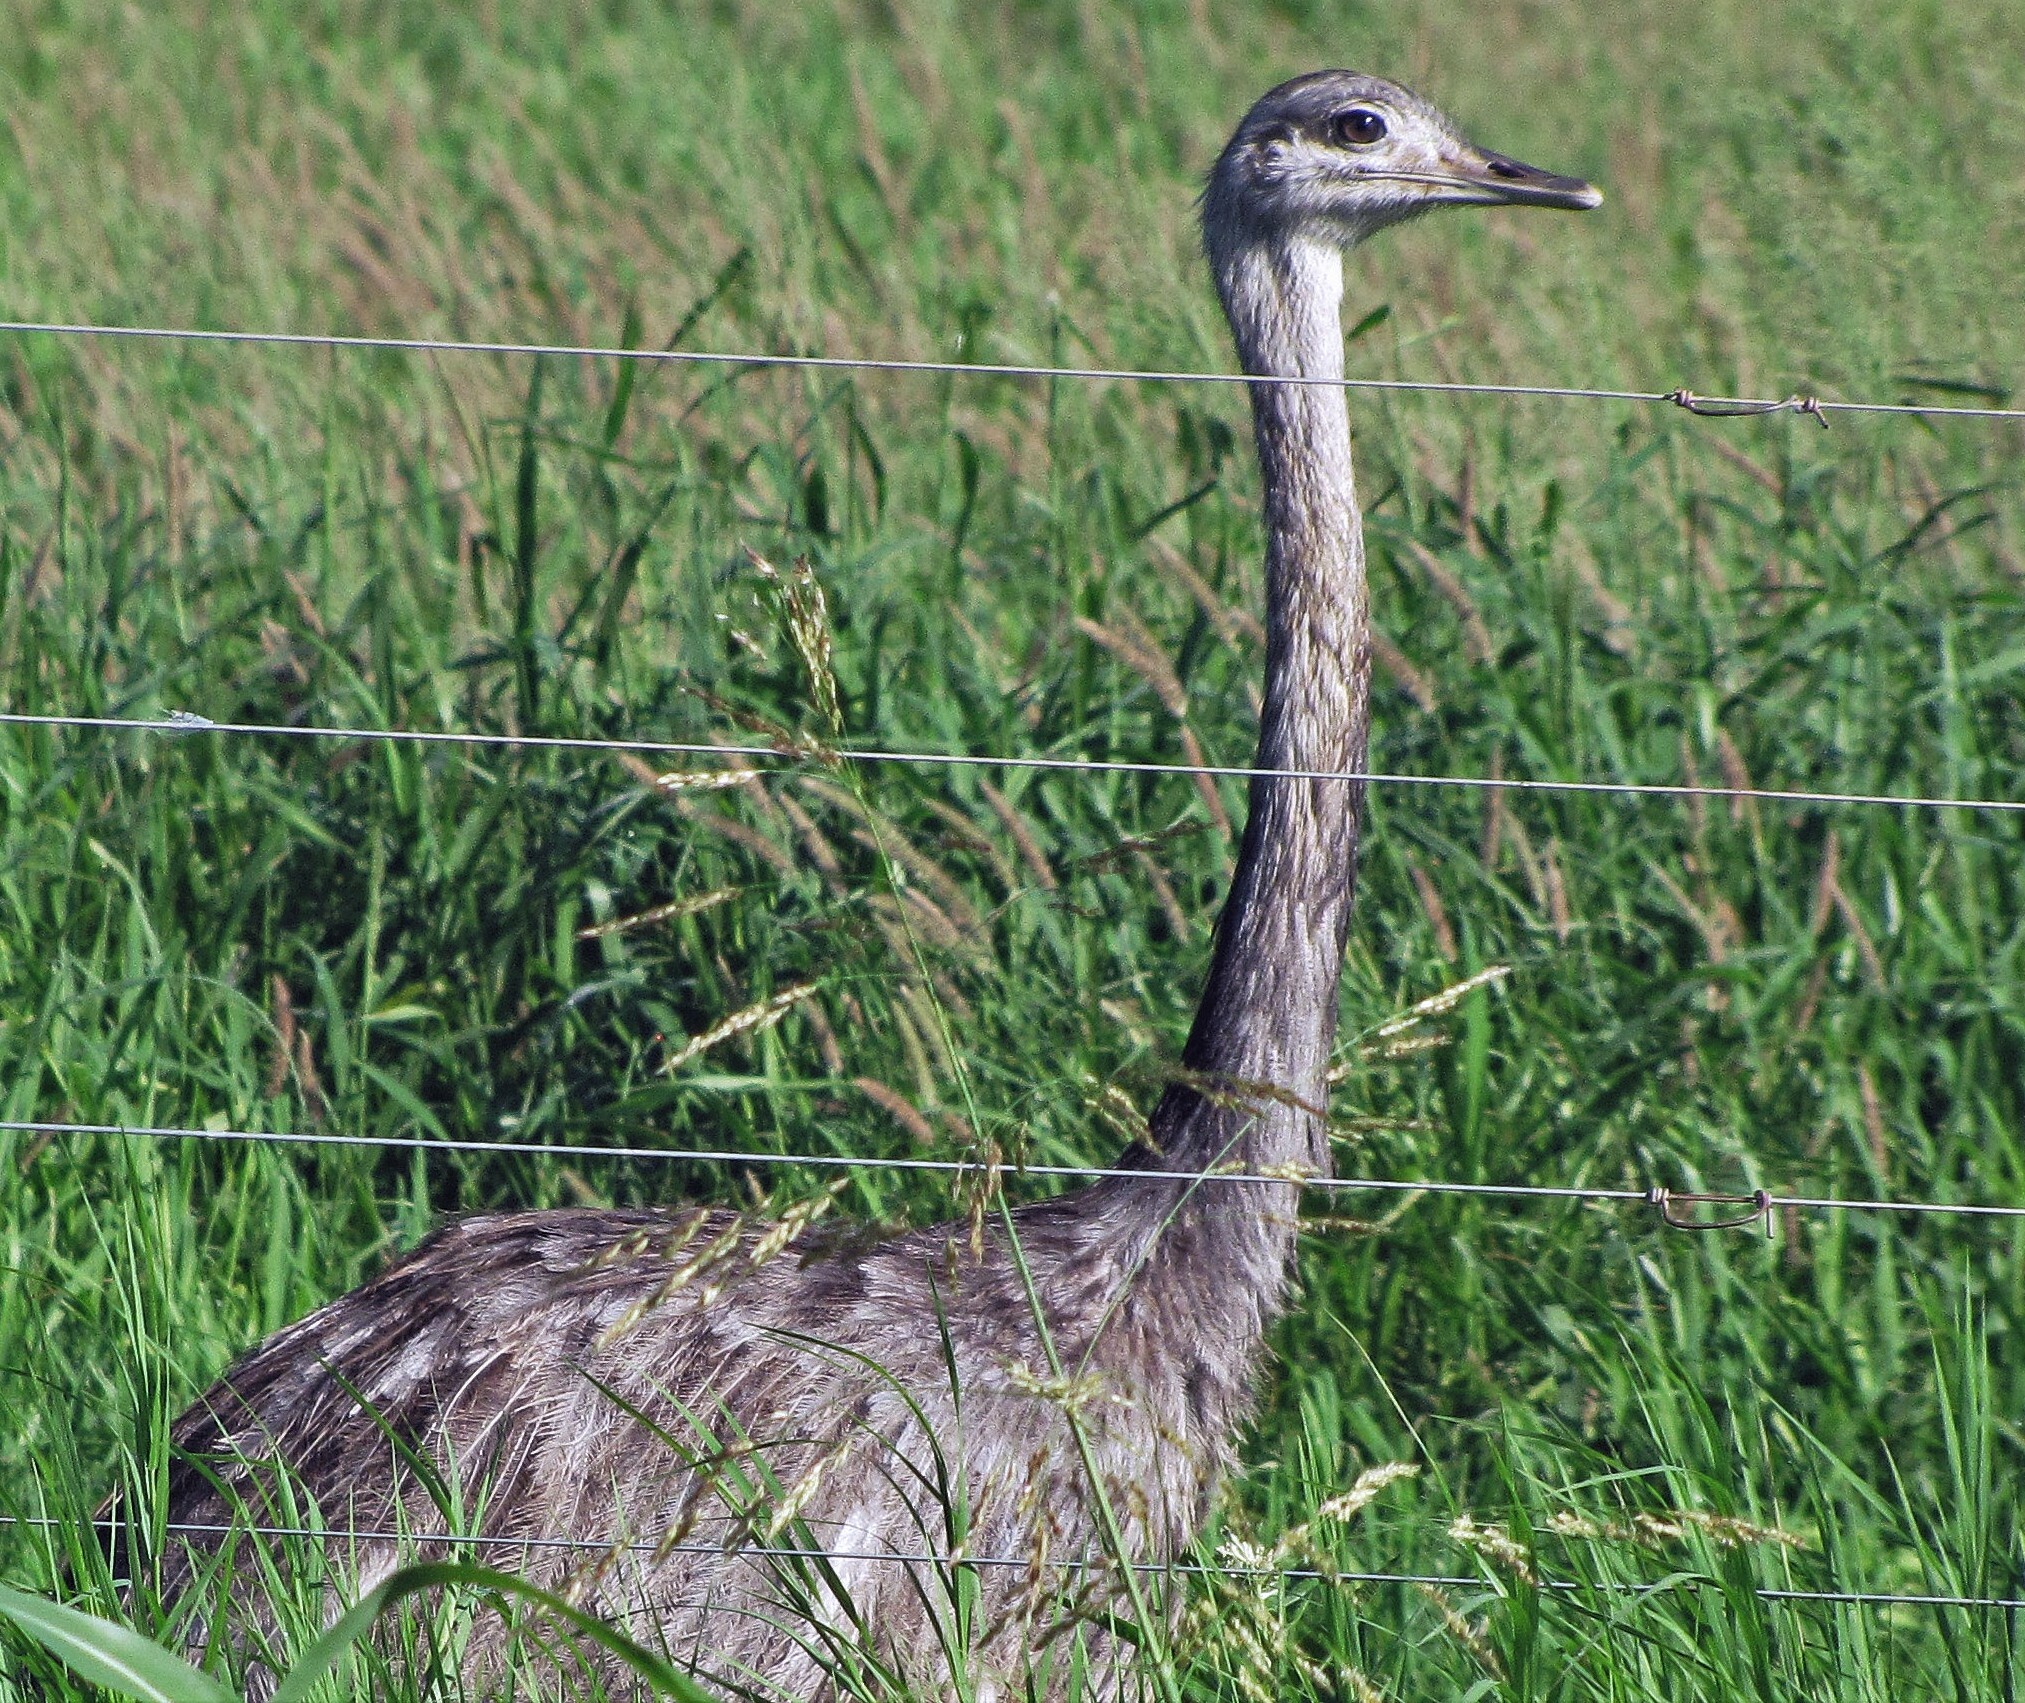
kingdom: Animalia
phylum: Chordata
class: Aves
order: Rheiformes
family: Rheidae
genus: Rhea
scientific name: Rhea americana
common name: Greater rhea
